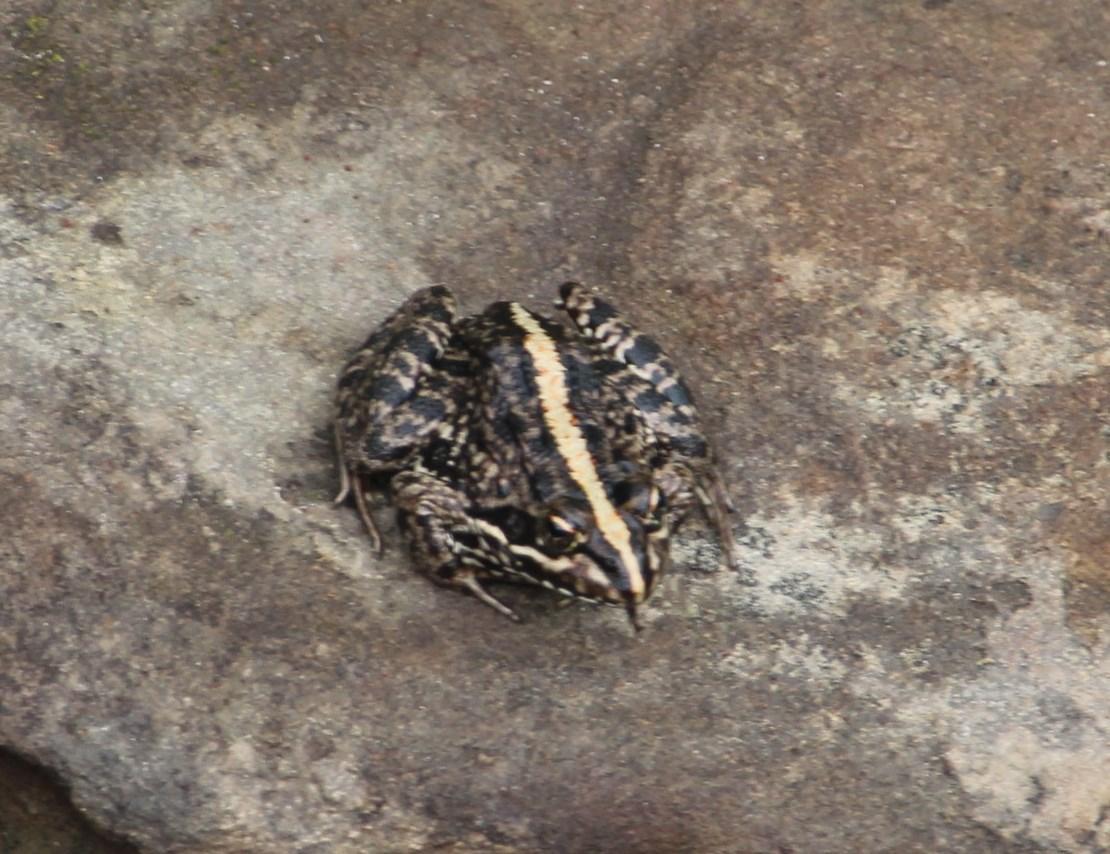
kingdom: Animalia
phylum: Chordata
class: Amphibia
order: Anura
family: Pyxicephalidae
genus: Amietia
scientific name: Amietia fuscigula
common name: Cape rana
